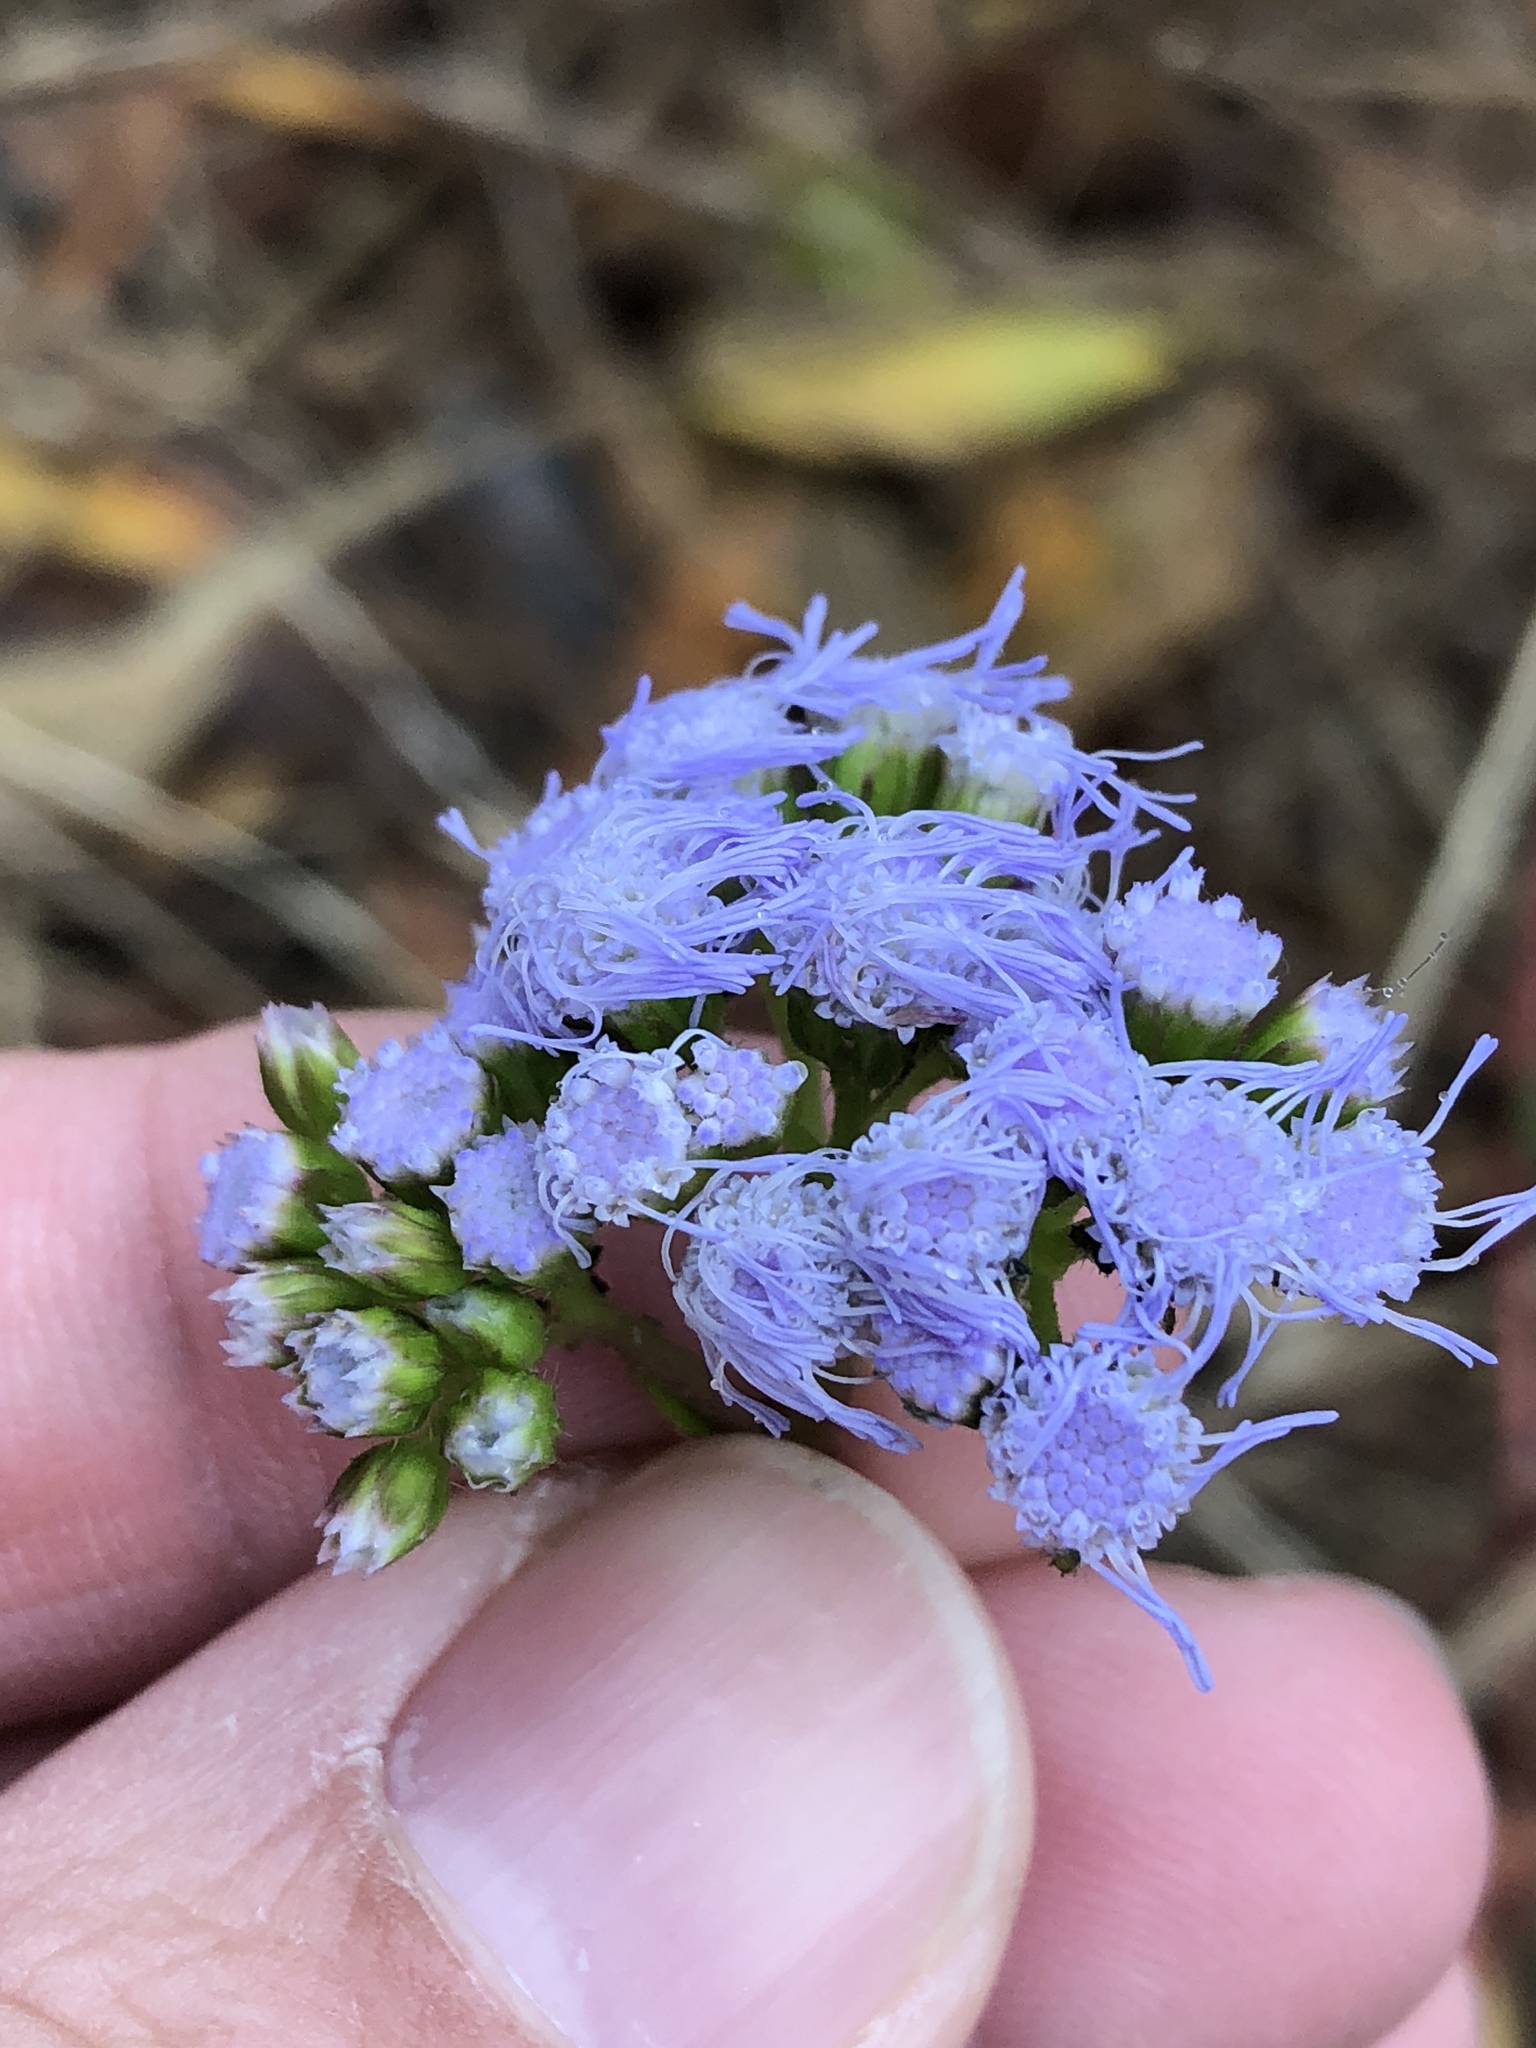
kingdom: Plantae
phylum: Tracheophyta
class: Magnoliopsida
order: Asterales
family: Asteraceae
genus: Conoclinium
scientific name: Conoclinium coelestinum
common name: Blue mistflower
